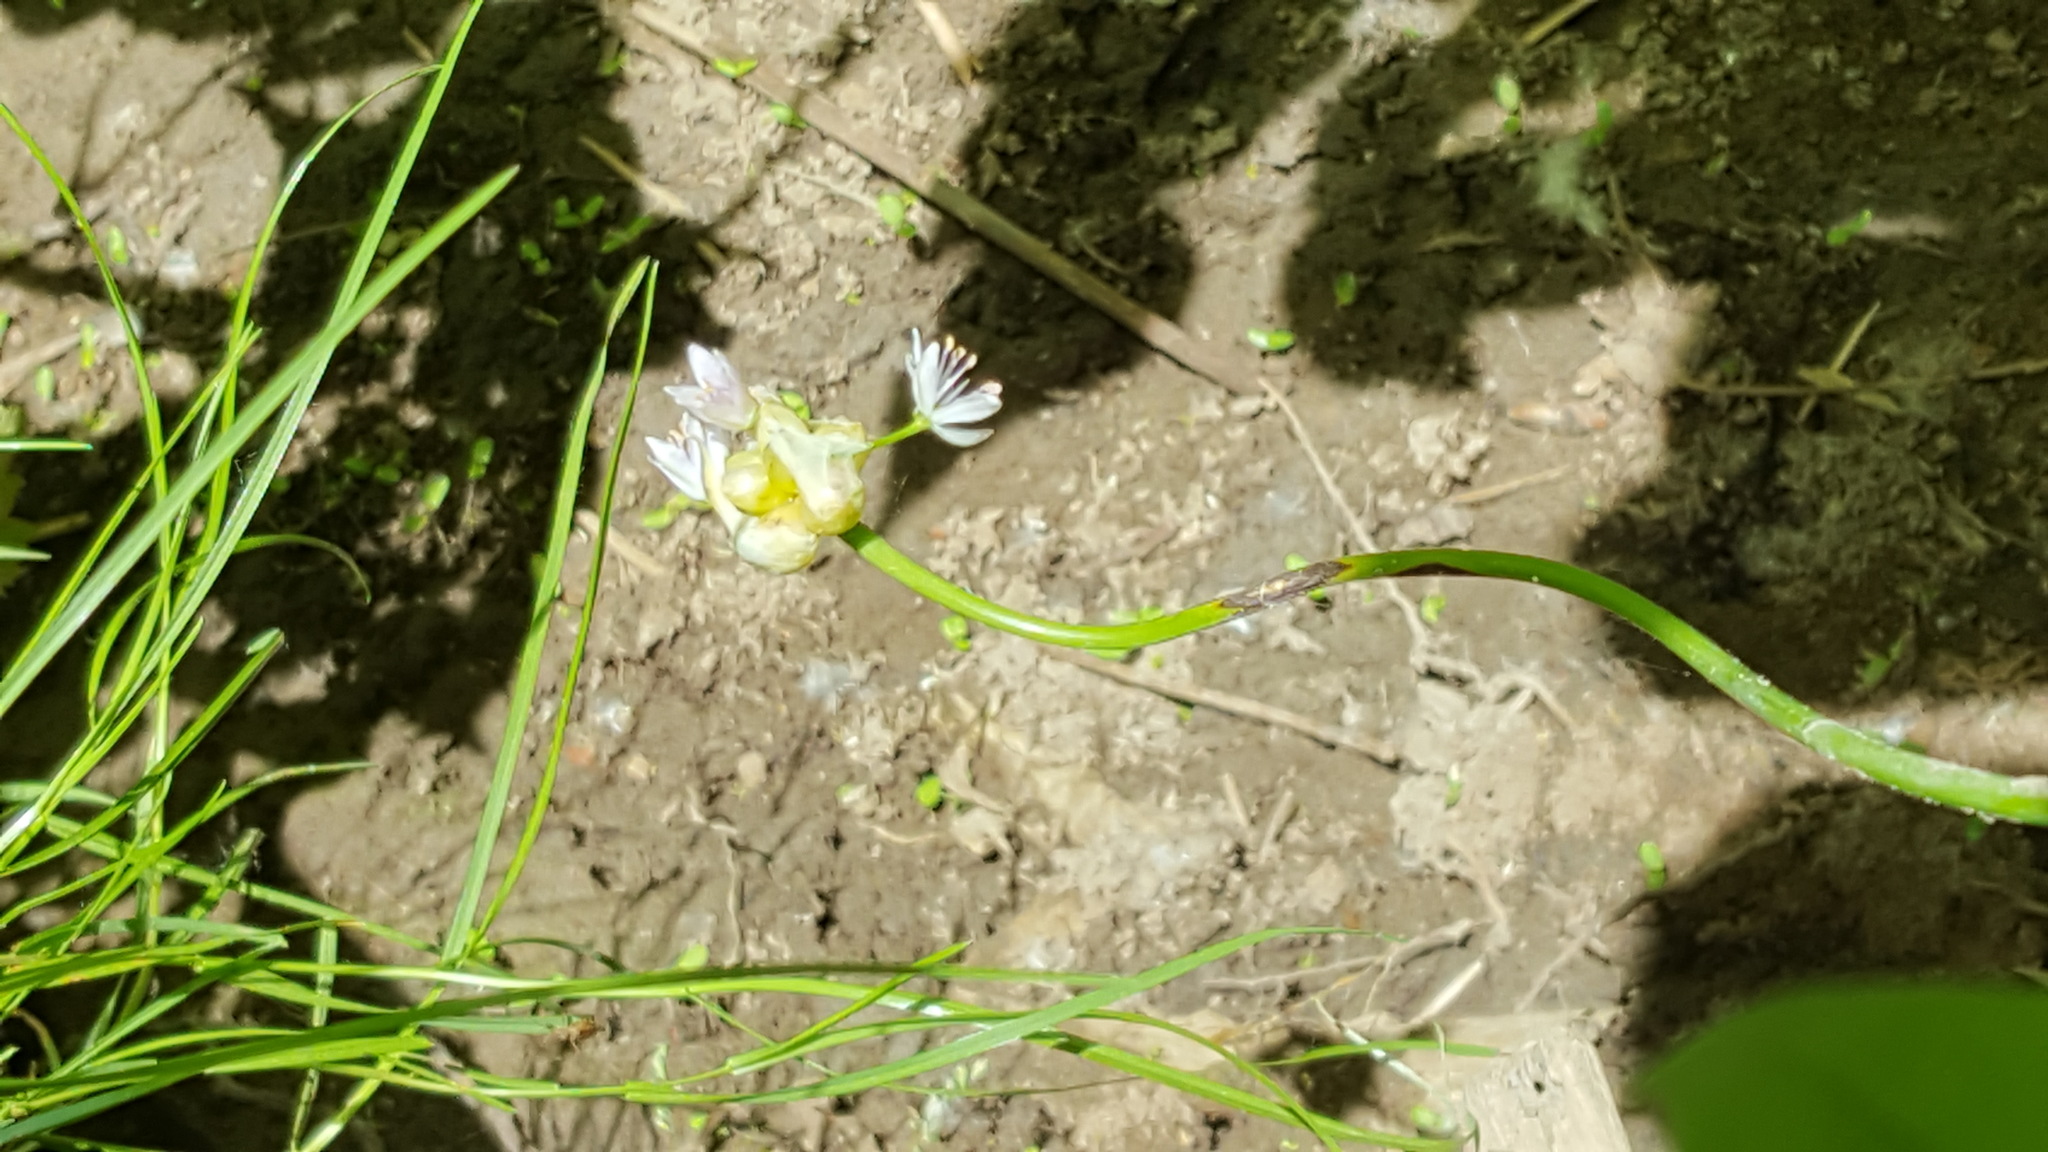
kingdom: Plantae
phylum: Tracheophyta
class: Liliopsida
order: Asparagales
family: Amaryllidaceae
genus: Allium
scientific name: Allium canadense
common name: Meadow garlic
